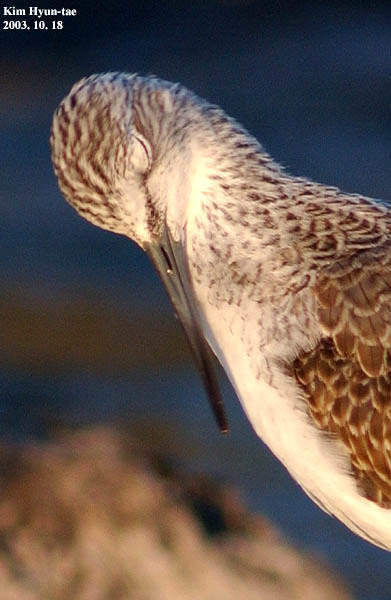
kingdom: Animalia
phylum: Chordata
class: Aves
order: Charadriiformes
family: Scolopacidae
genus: Tringa
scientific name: Tringa nebularia
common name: Common greenshank
